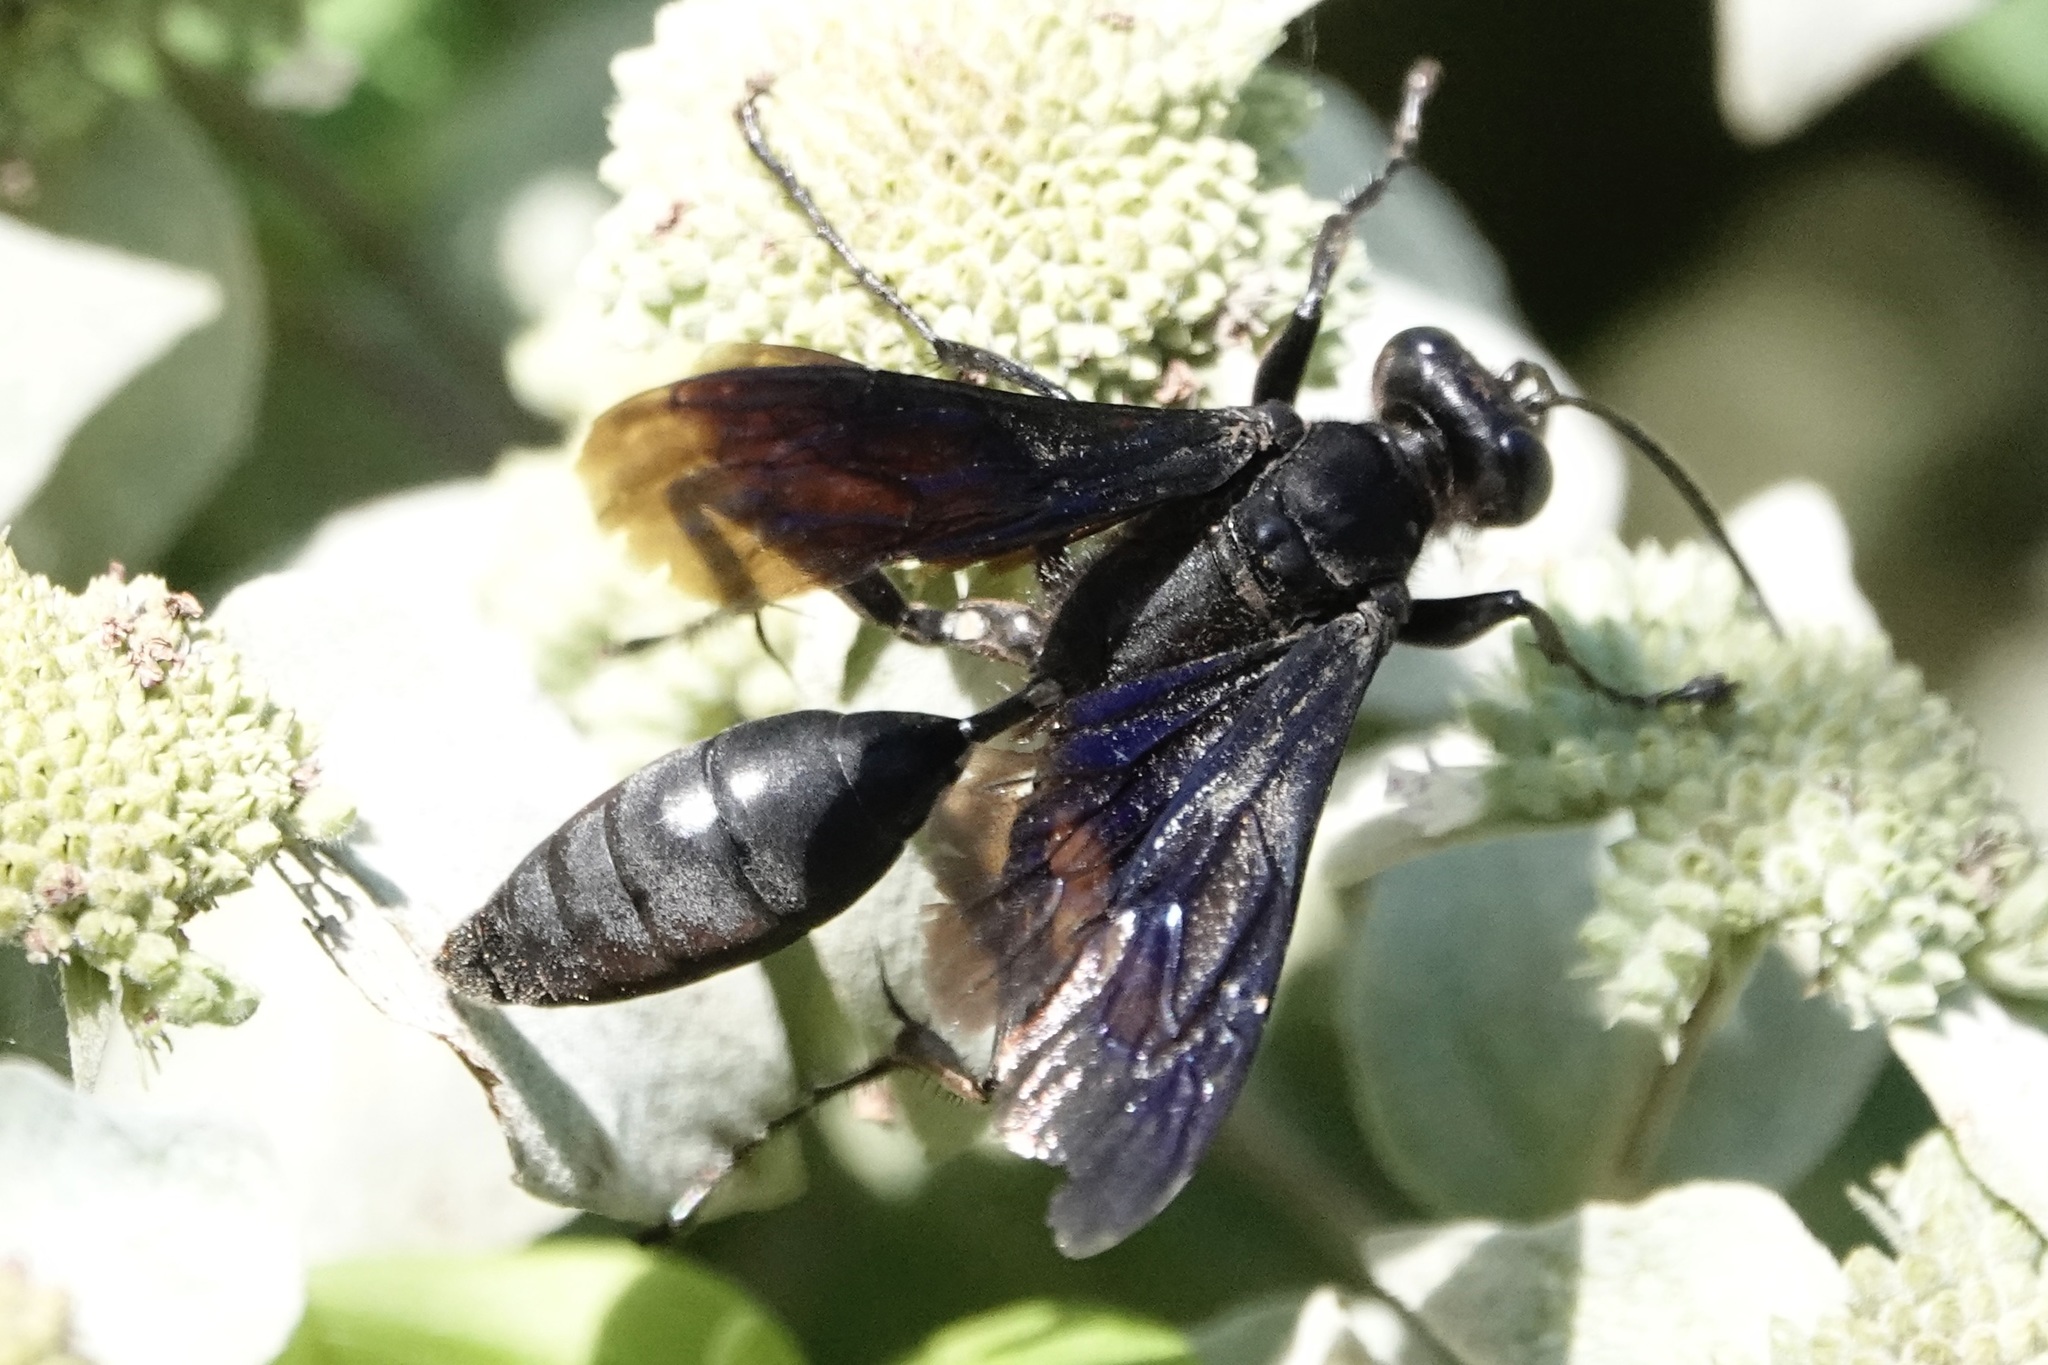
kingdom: Animalia
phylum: Arthropoda
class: Insecta
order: Hymenoptera
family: Sphecidae
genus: Sphex
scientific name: Sphex pensylvanicus
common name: Great black digger wasp
